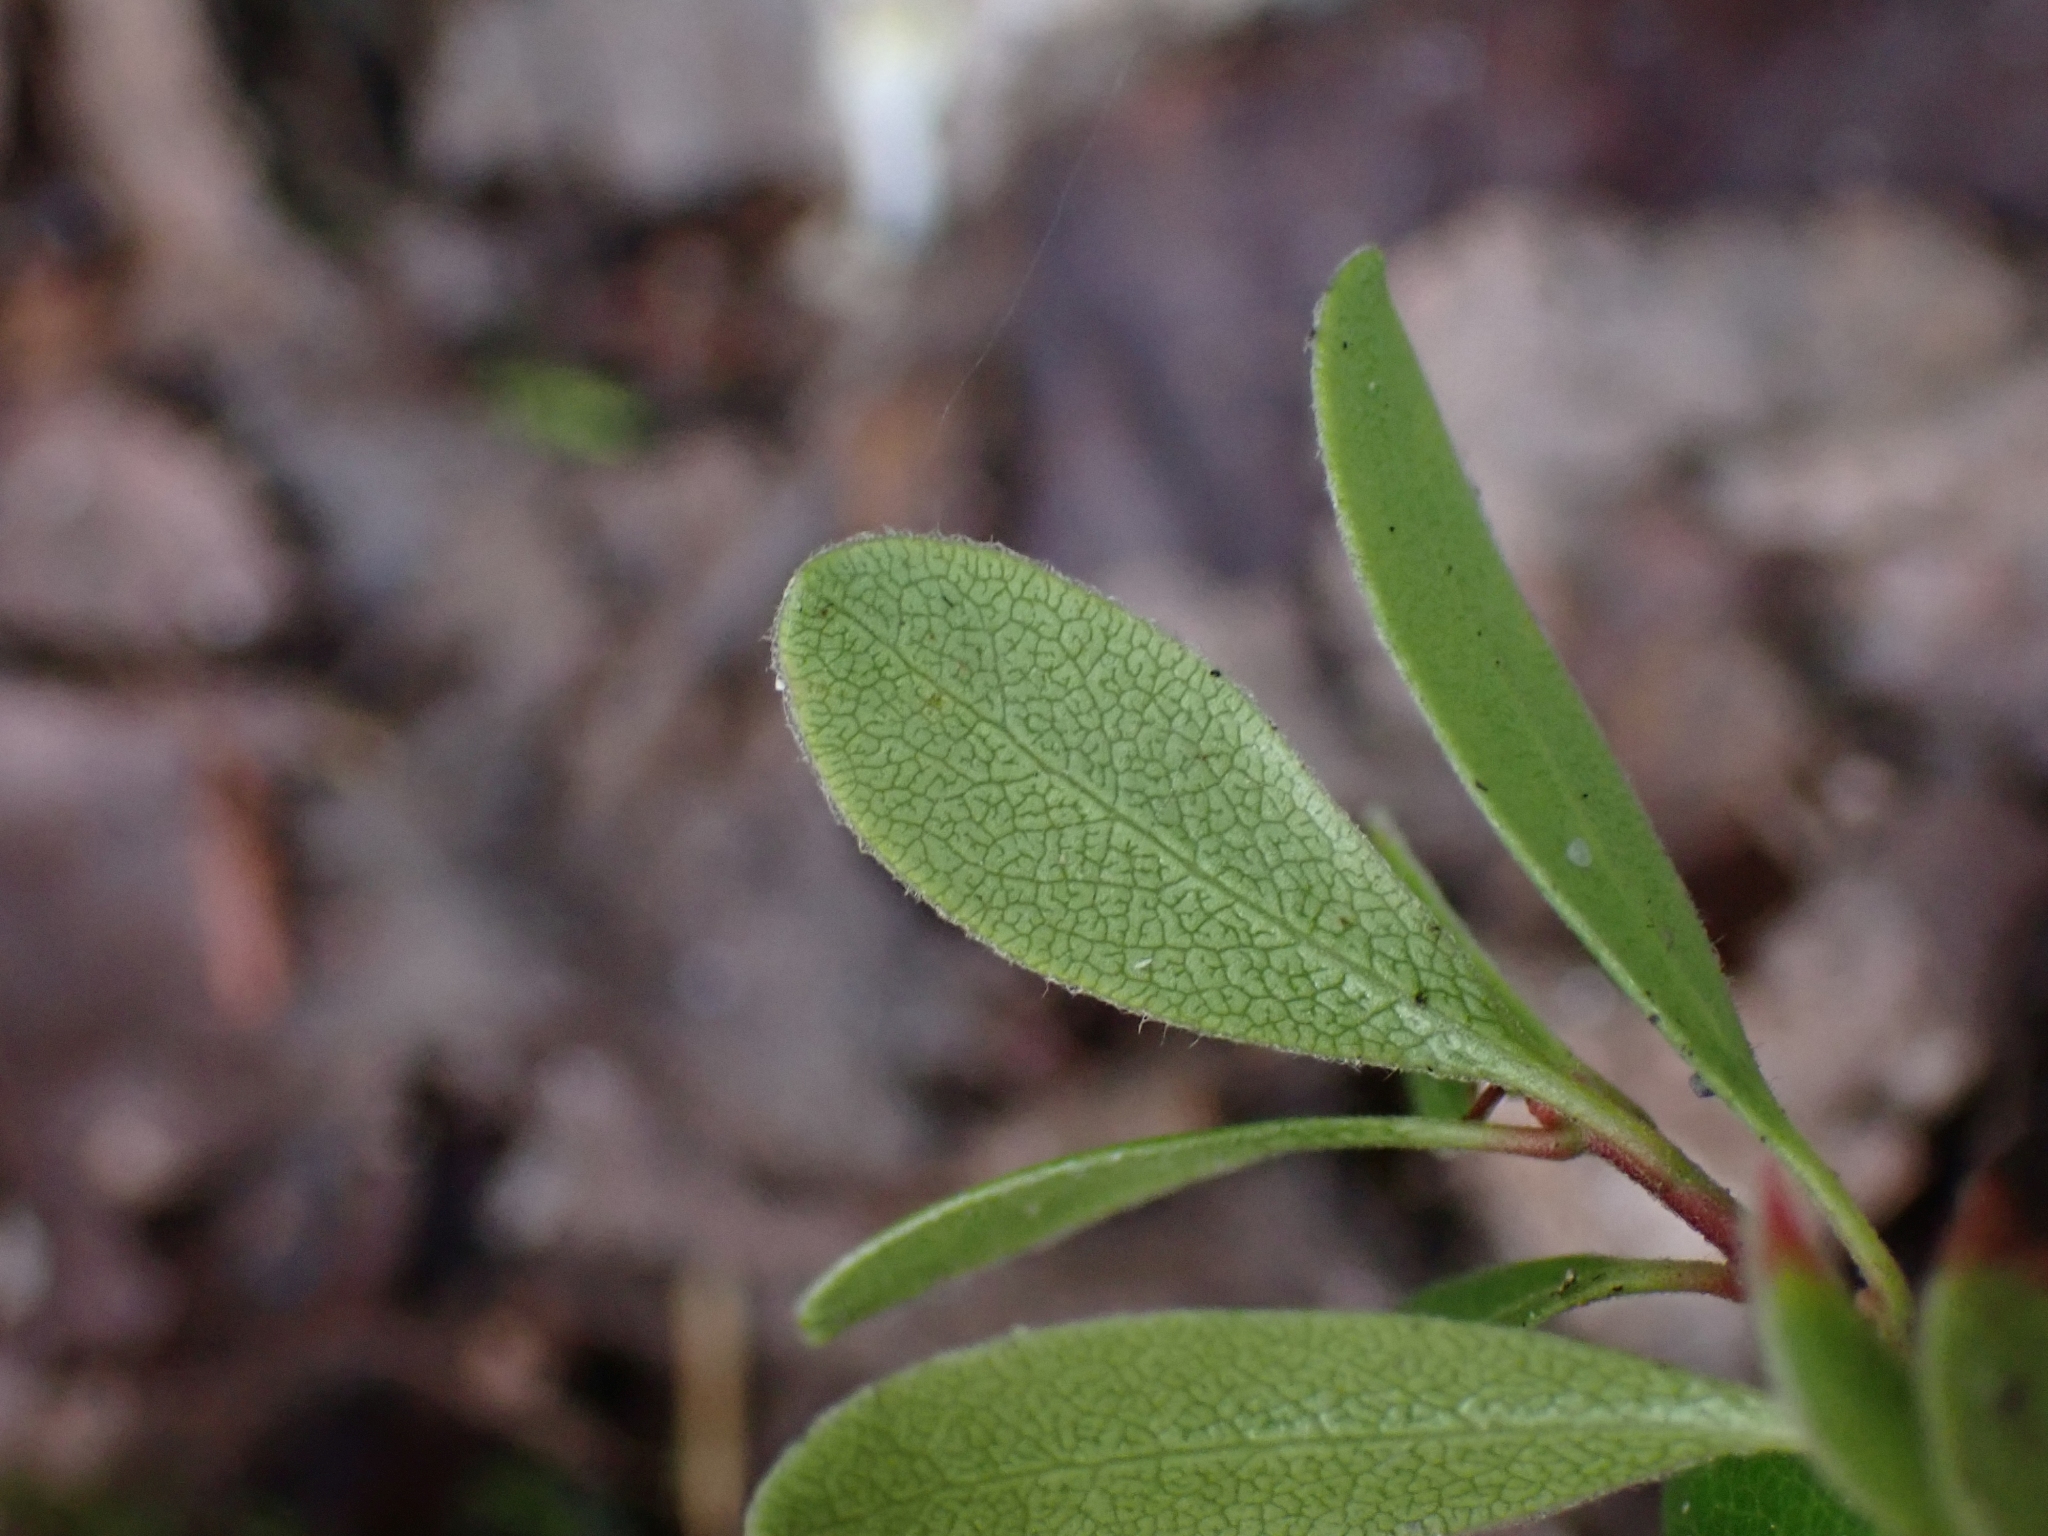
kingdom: Plantae
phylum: Tracheophyta
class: Magnoliopsida
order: Ericales
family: Ericaceae
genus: Arctostaphylos
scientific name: Arctostaphylos uva-ursi
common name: Bearberry
